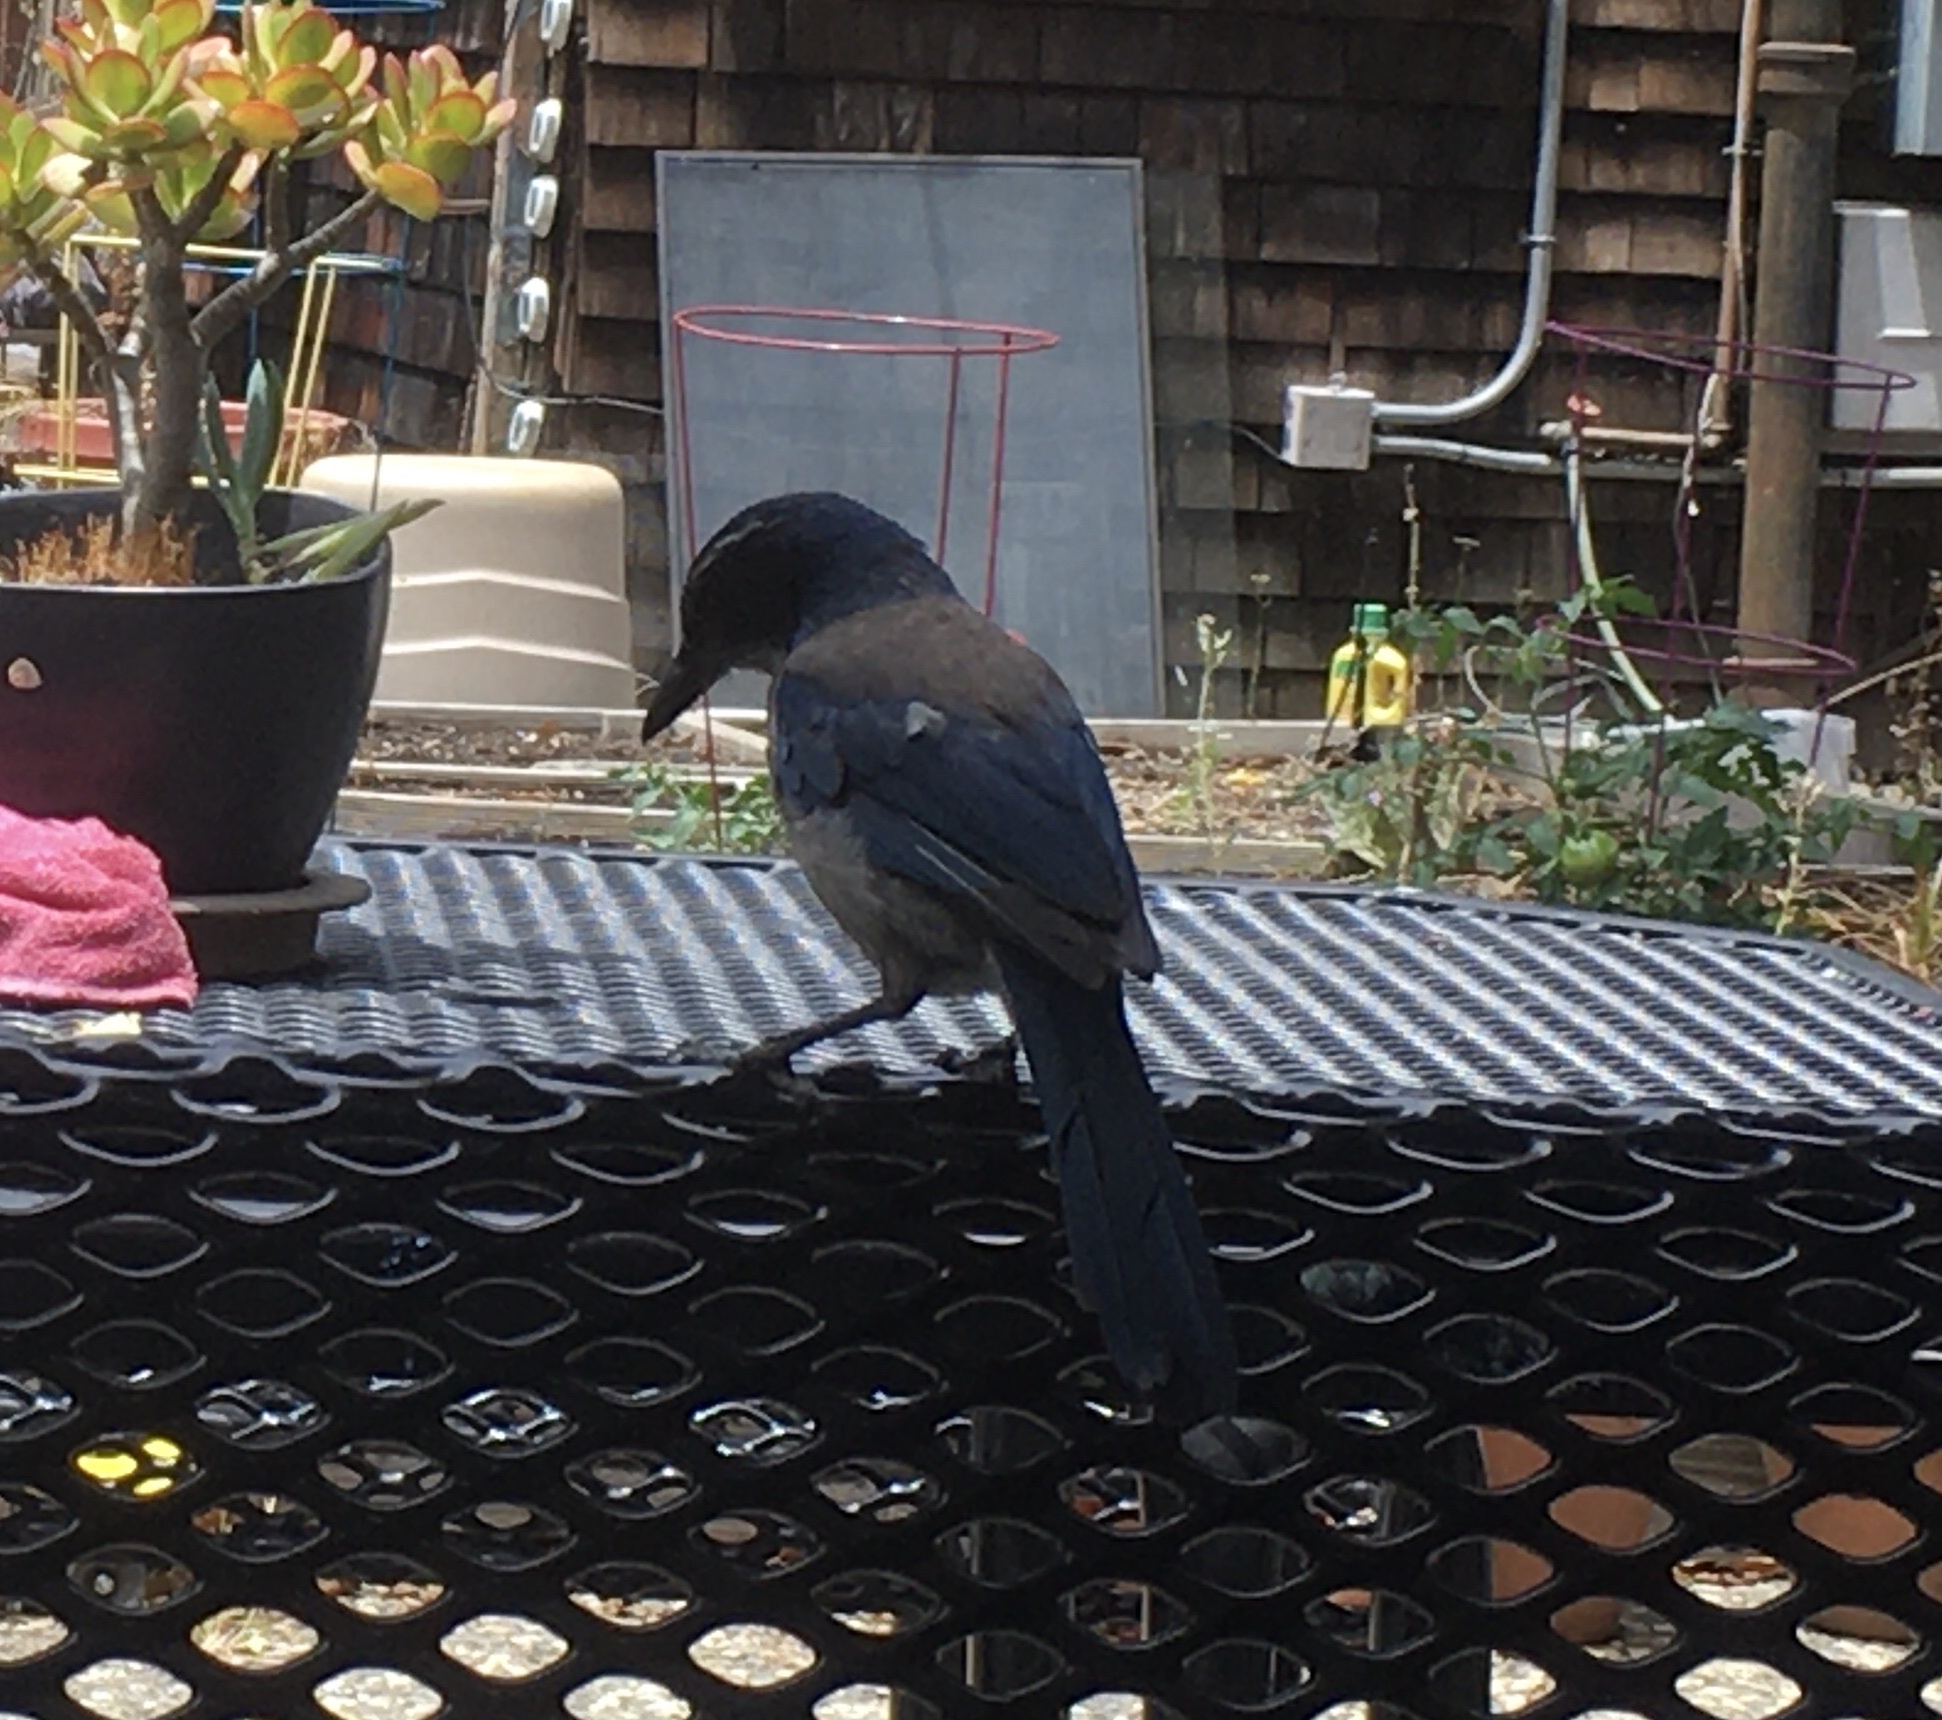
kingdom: Animalia
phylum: Chordata
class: Aves
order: Passeriformes
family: Corvidae
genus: Aphelocoma
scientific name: Aphelocoma californica
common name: California scrub-jay
